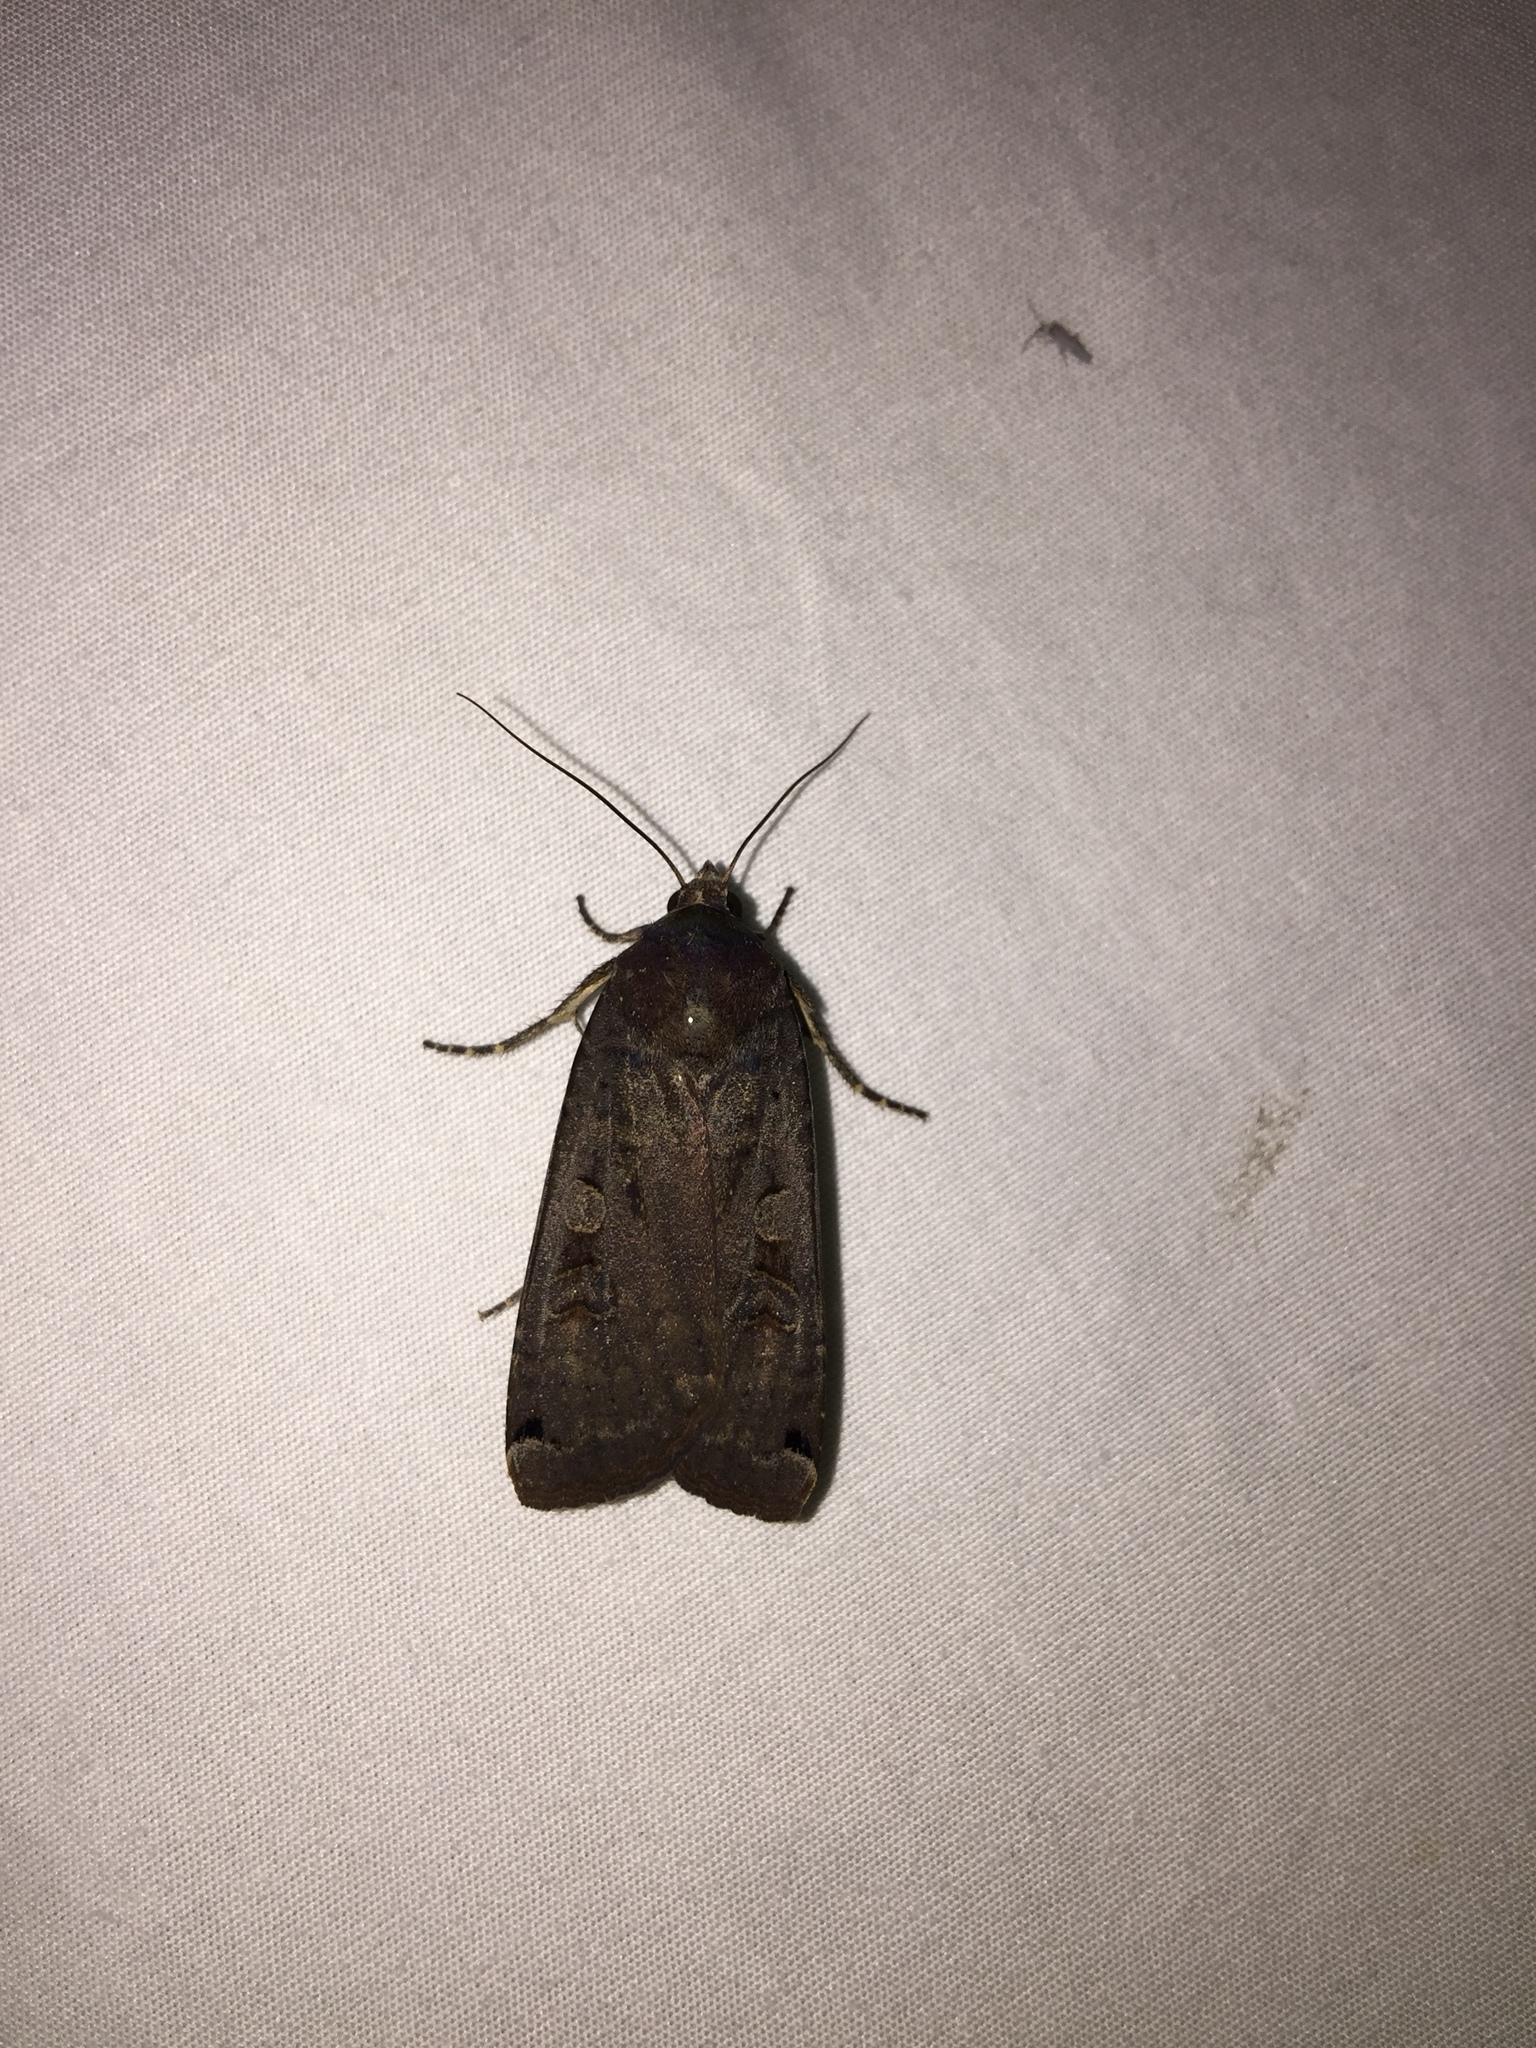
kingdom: Animalia
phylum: Arthropoda
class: Insecta
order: Lepidoptera
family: Noctuidae
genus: Noctua
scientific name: Noctua pronuba
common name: Large yellow underwing
